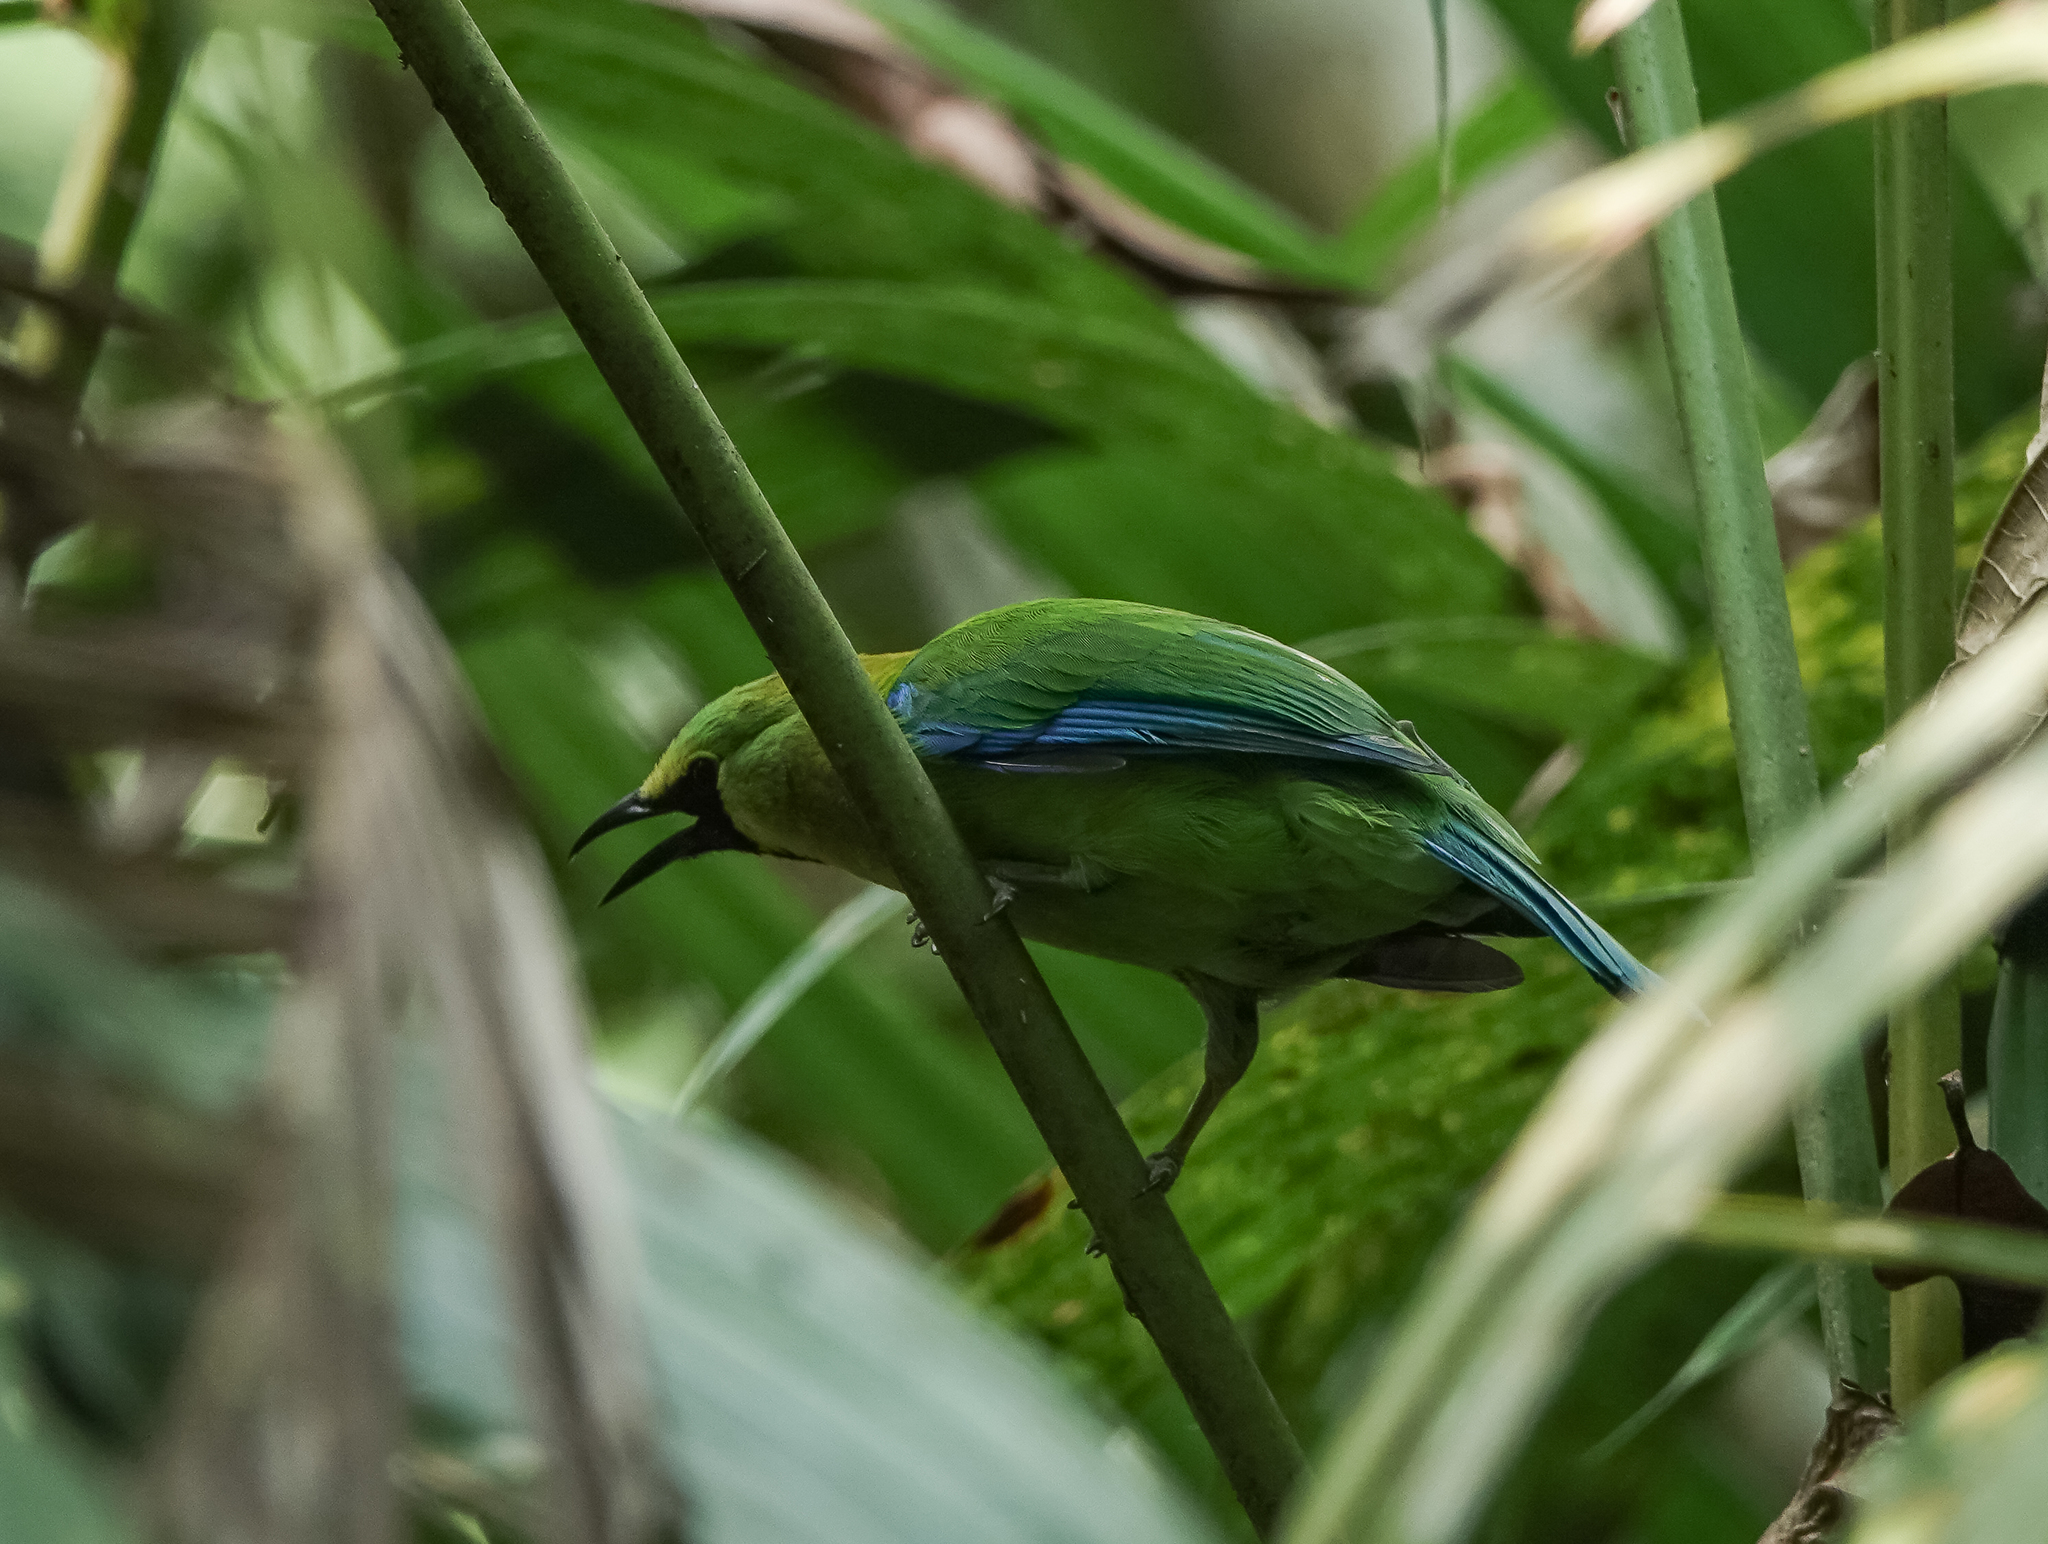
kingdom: Animalia
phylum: Chordata
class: Aves
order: Passeriformes
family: Chloropseidae
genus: Chloropsis
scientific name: Chloropsis moluccensis
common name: Blue-winged leafbird
